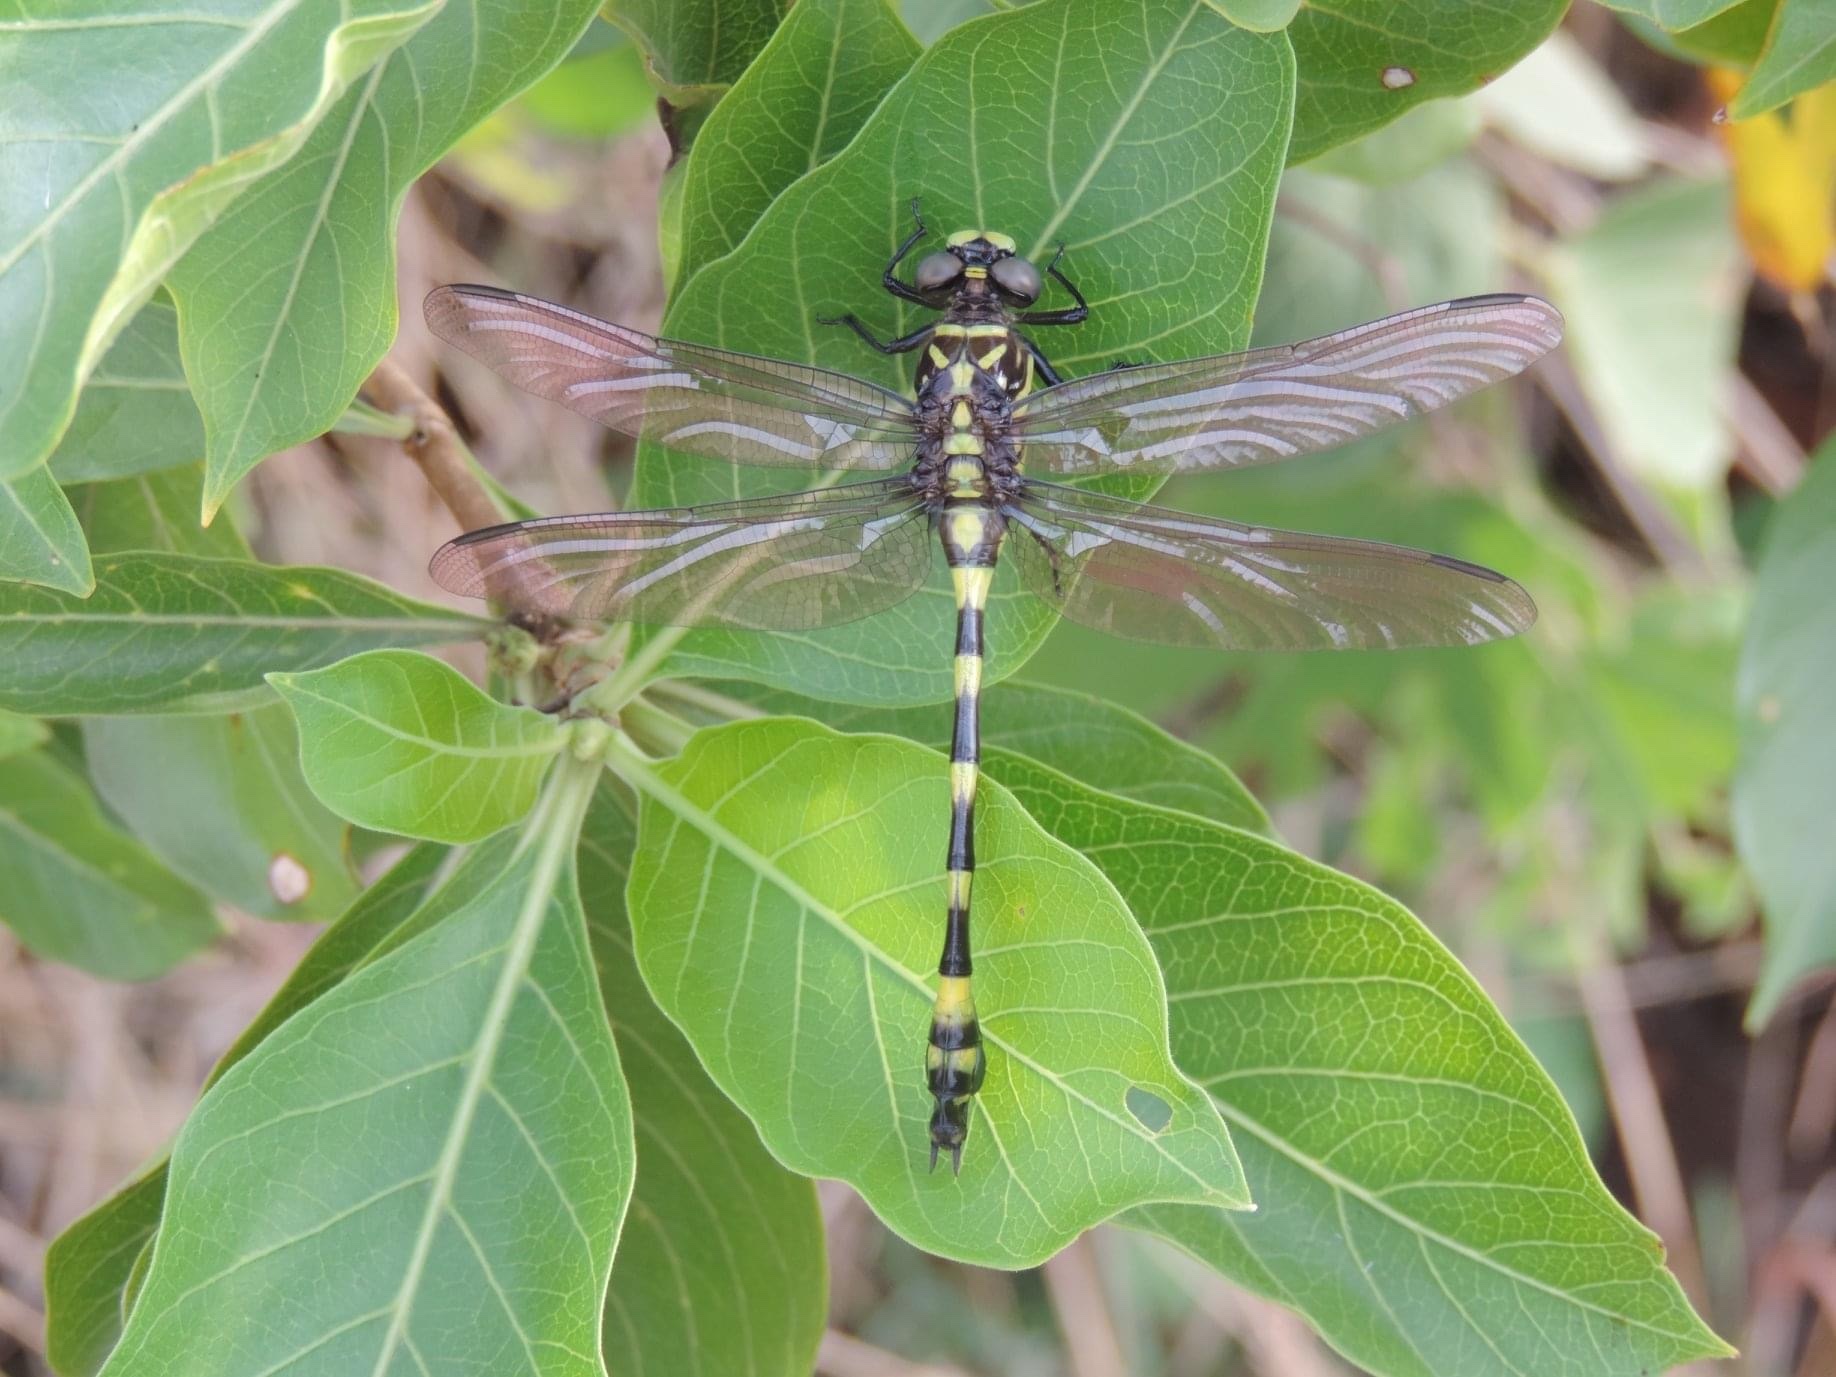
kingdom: Animalia
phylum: Arthropoda
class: Insecta
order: Odonata
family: Gomphidae
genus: Ictinogomphus
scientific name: Ictinogomphus rapax
